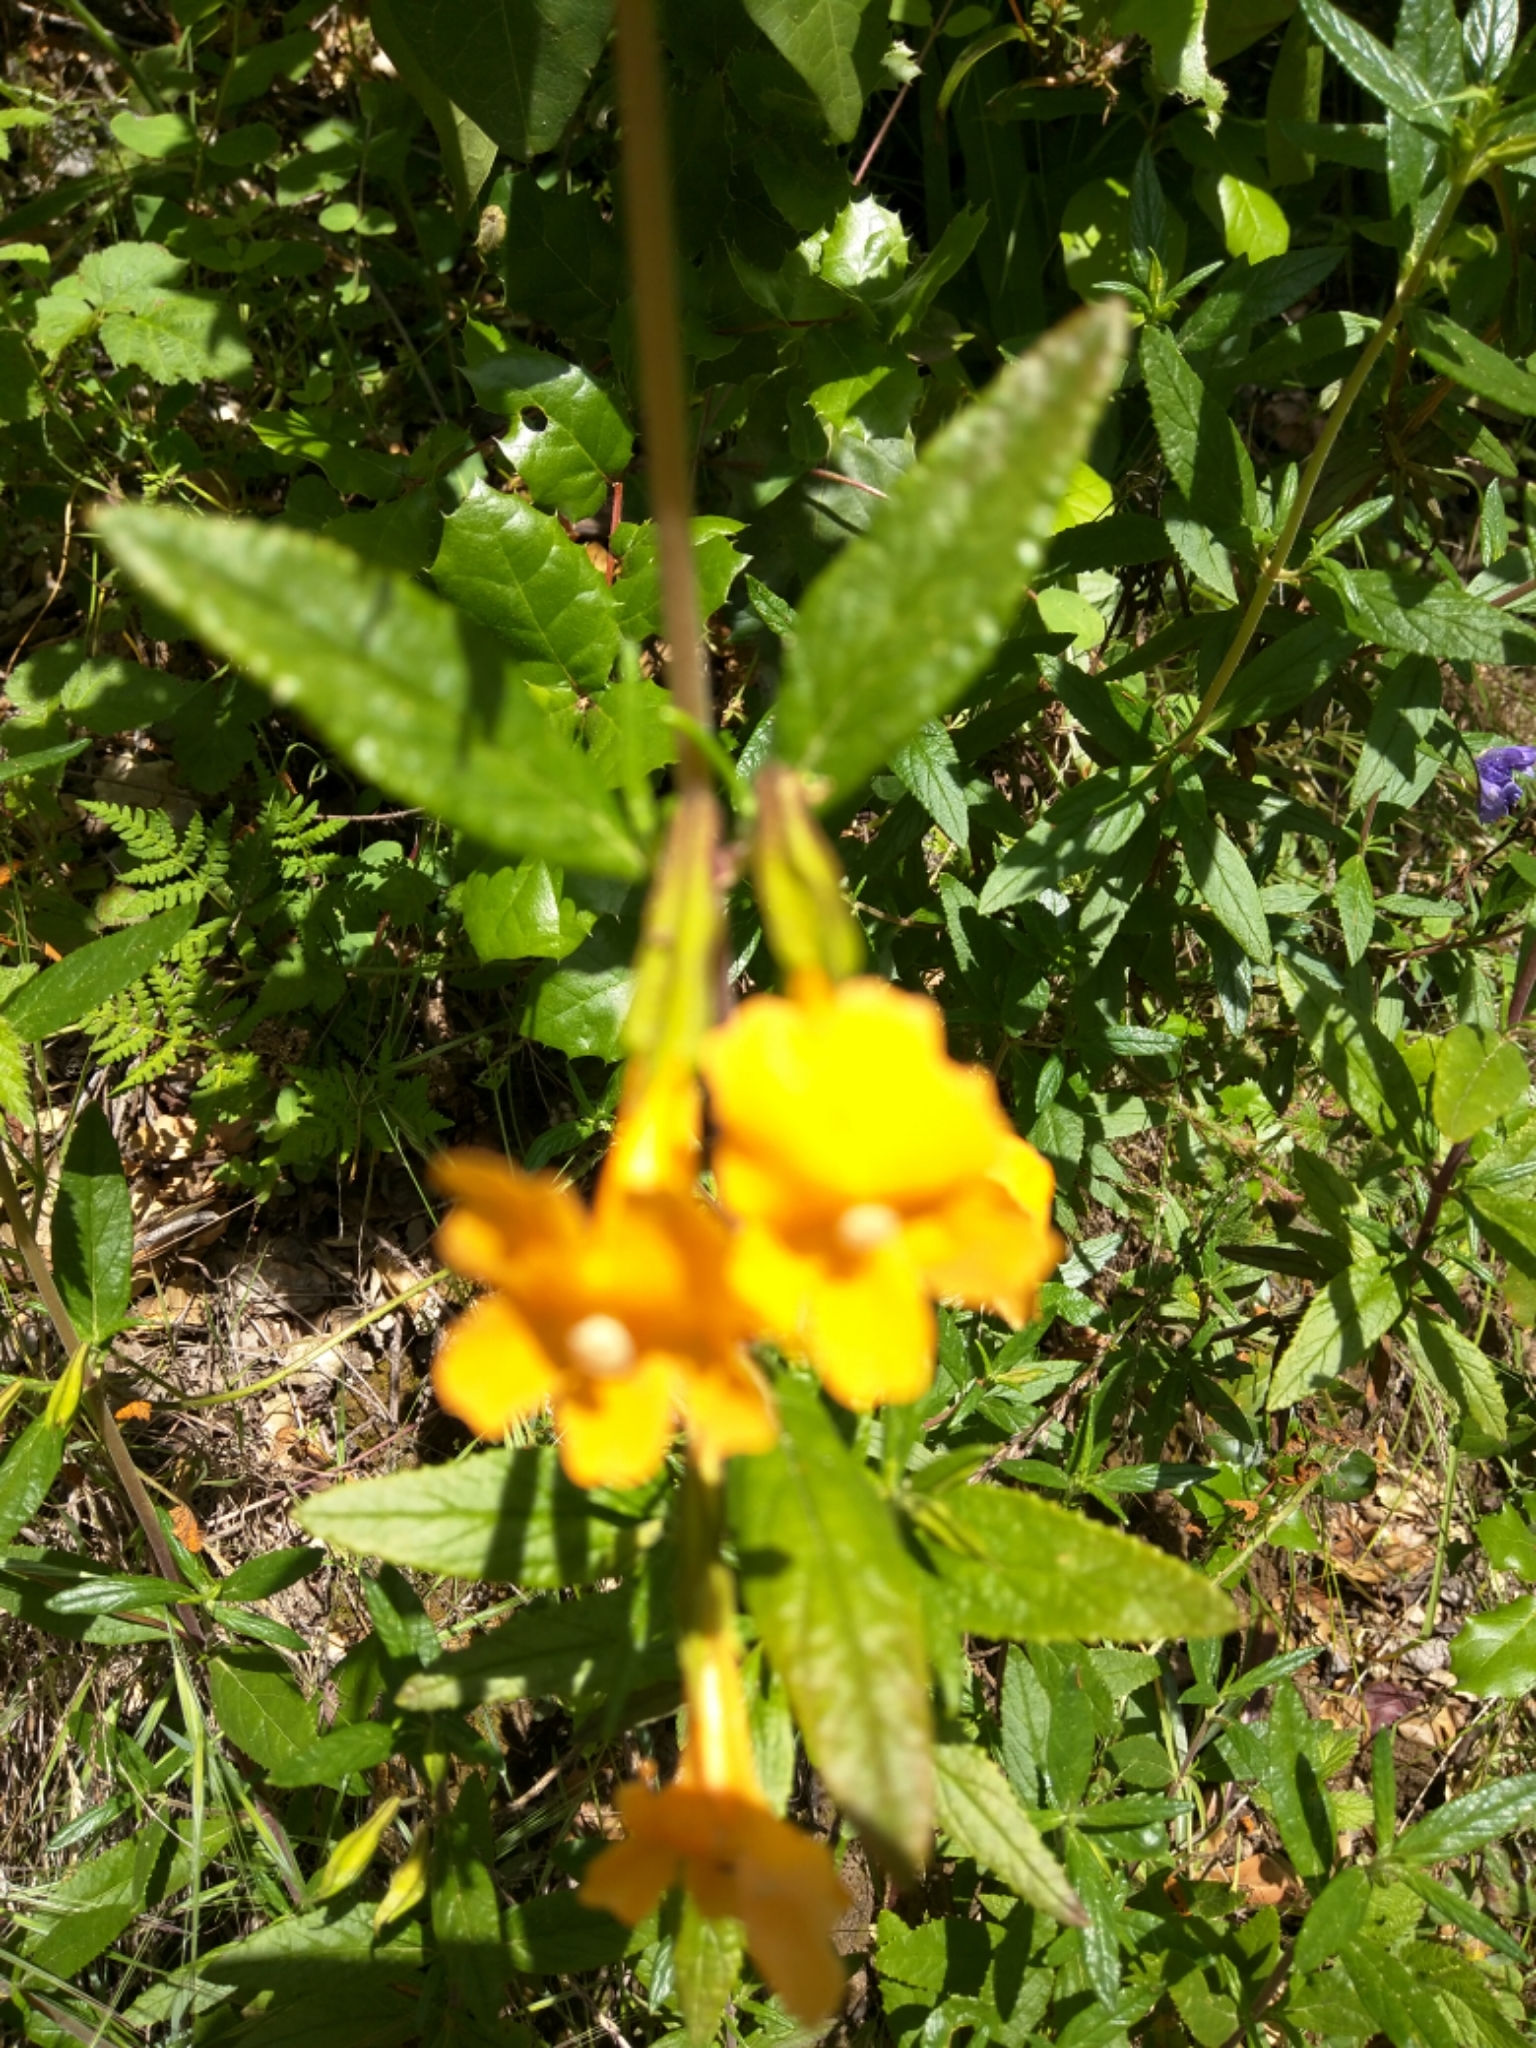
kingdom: Plantae
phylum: Tracheophyta
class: Magnoliopsida
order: Lamiales
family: Phrymaceae
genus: Diplacus
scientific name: Diplacus aurantiacus
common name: Bush monkey-flower
